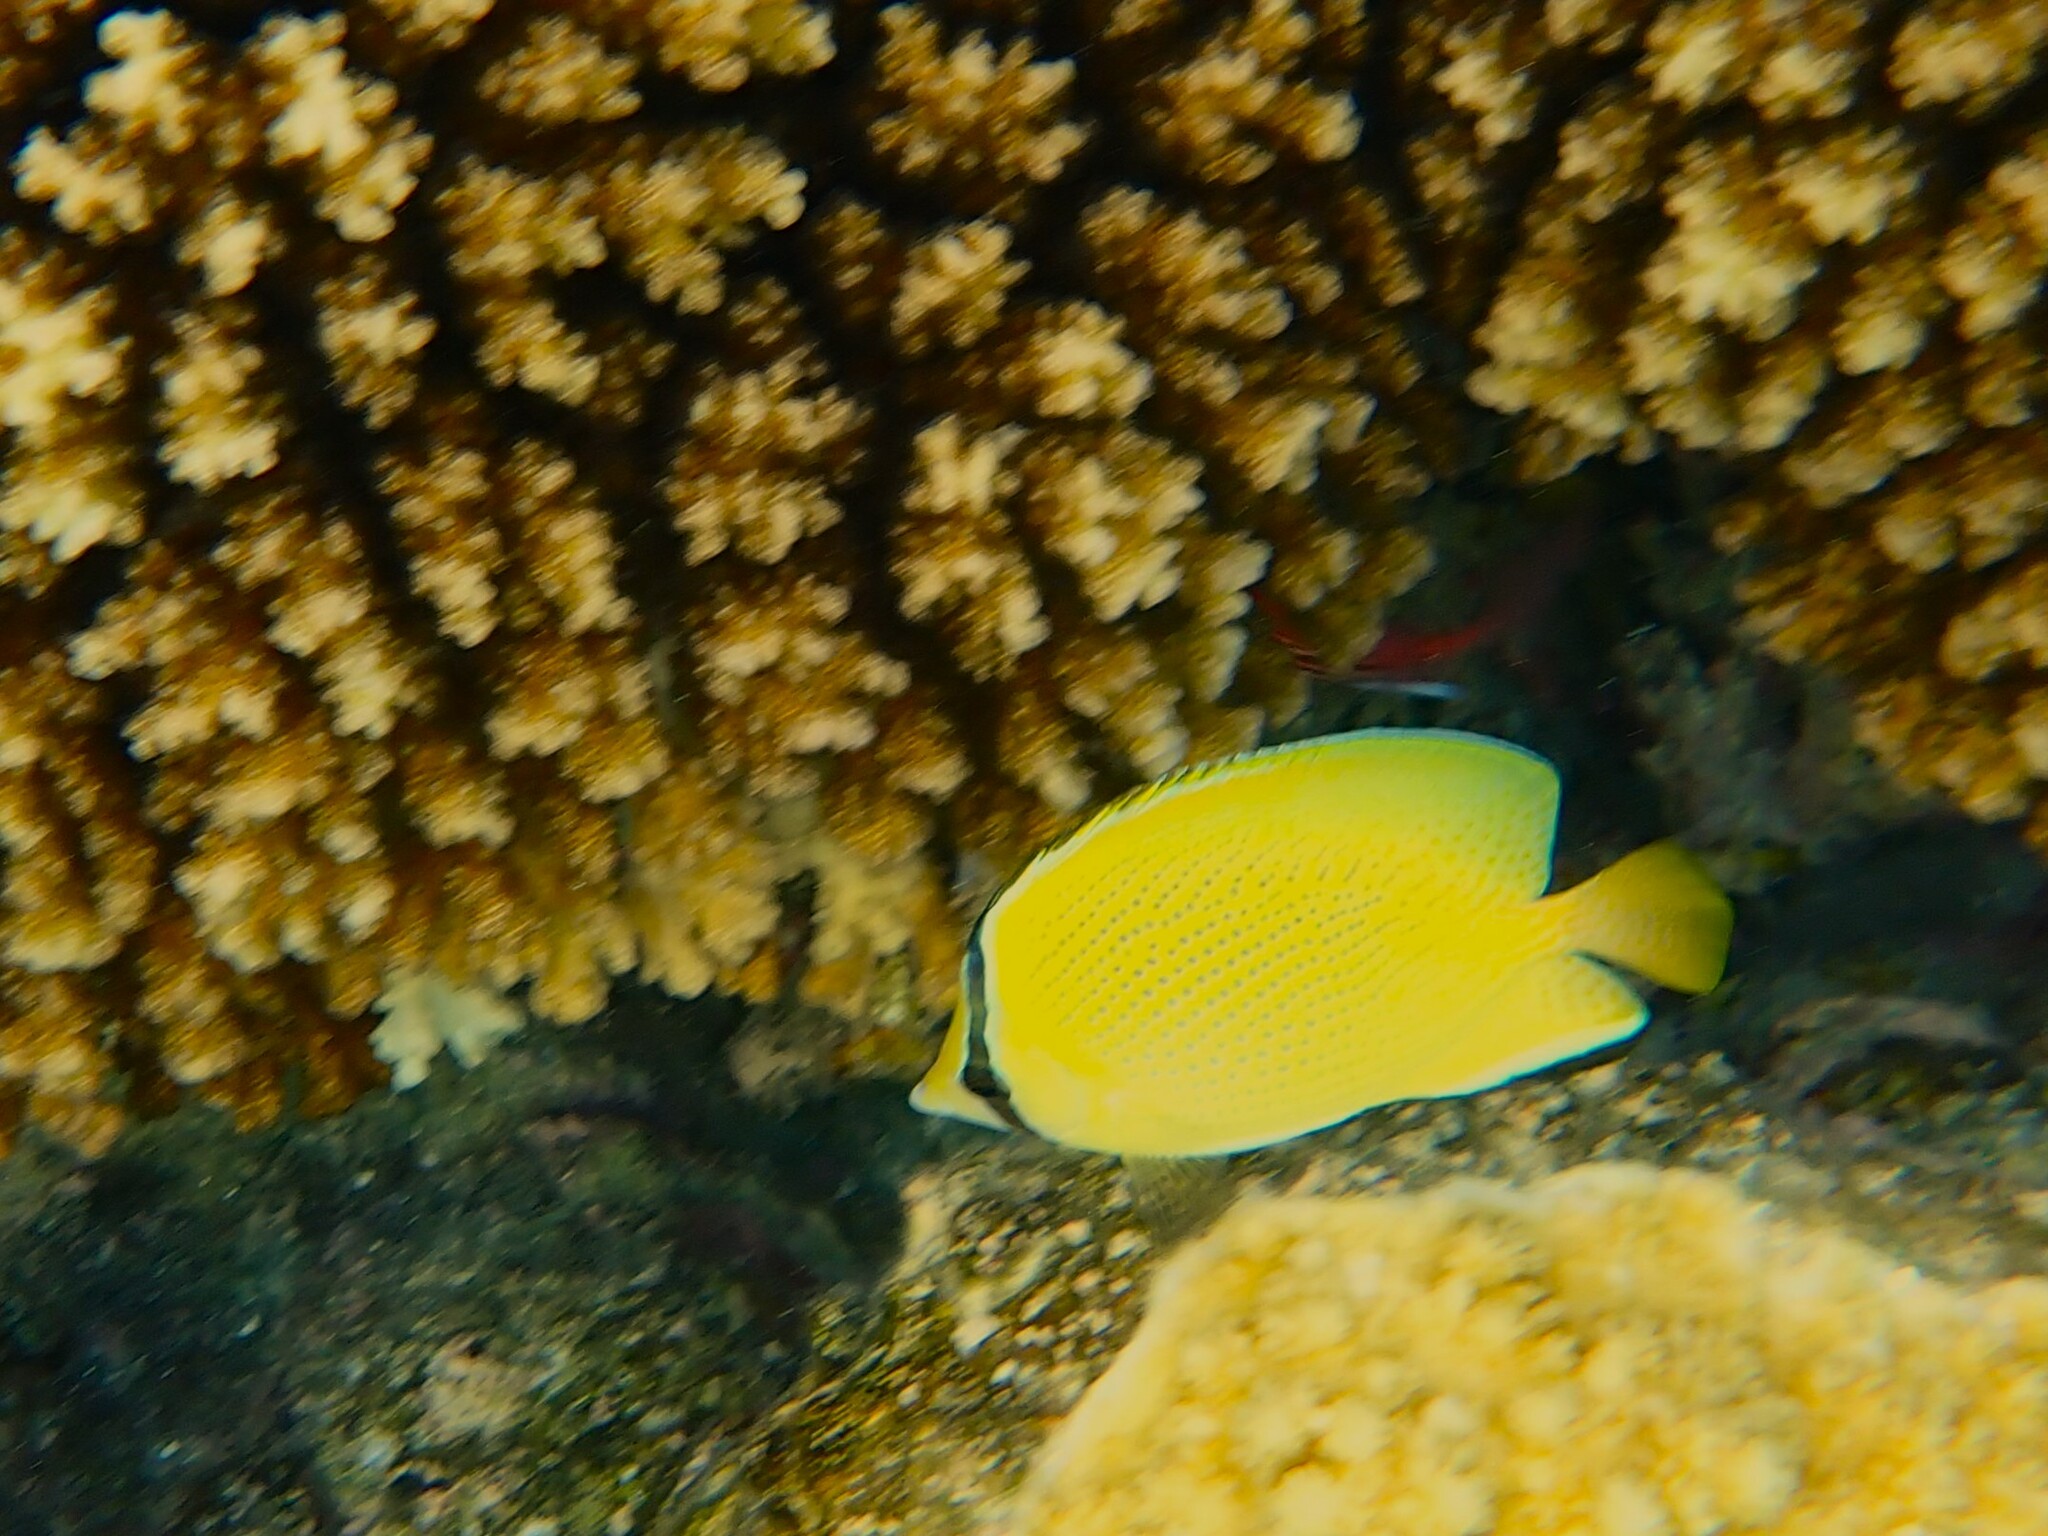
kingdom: Animalia
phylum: Chordata
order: Perciformes
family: Chaetodontidae
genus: Chaetodon
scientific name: Chaetodon citrinellus
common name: Speckled butterflyfish
